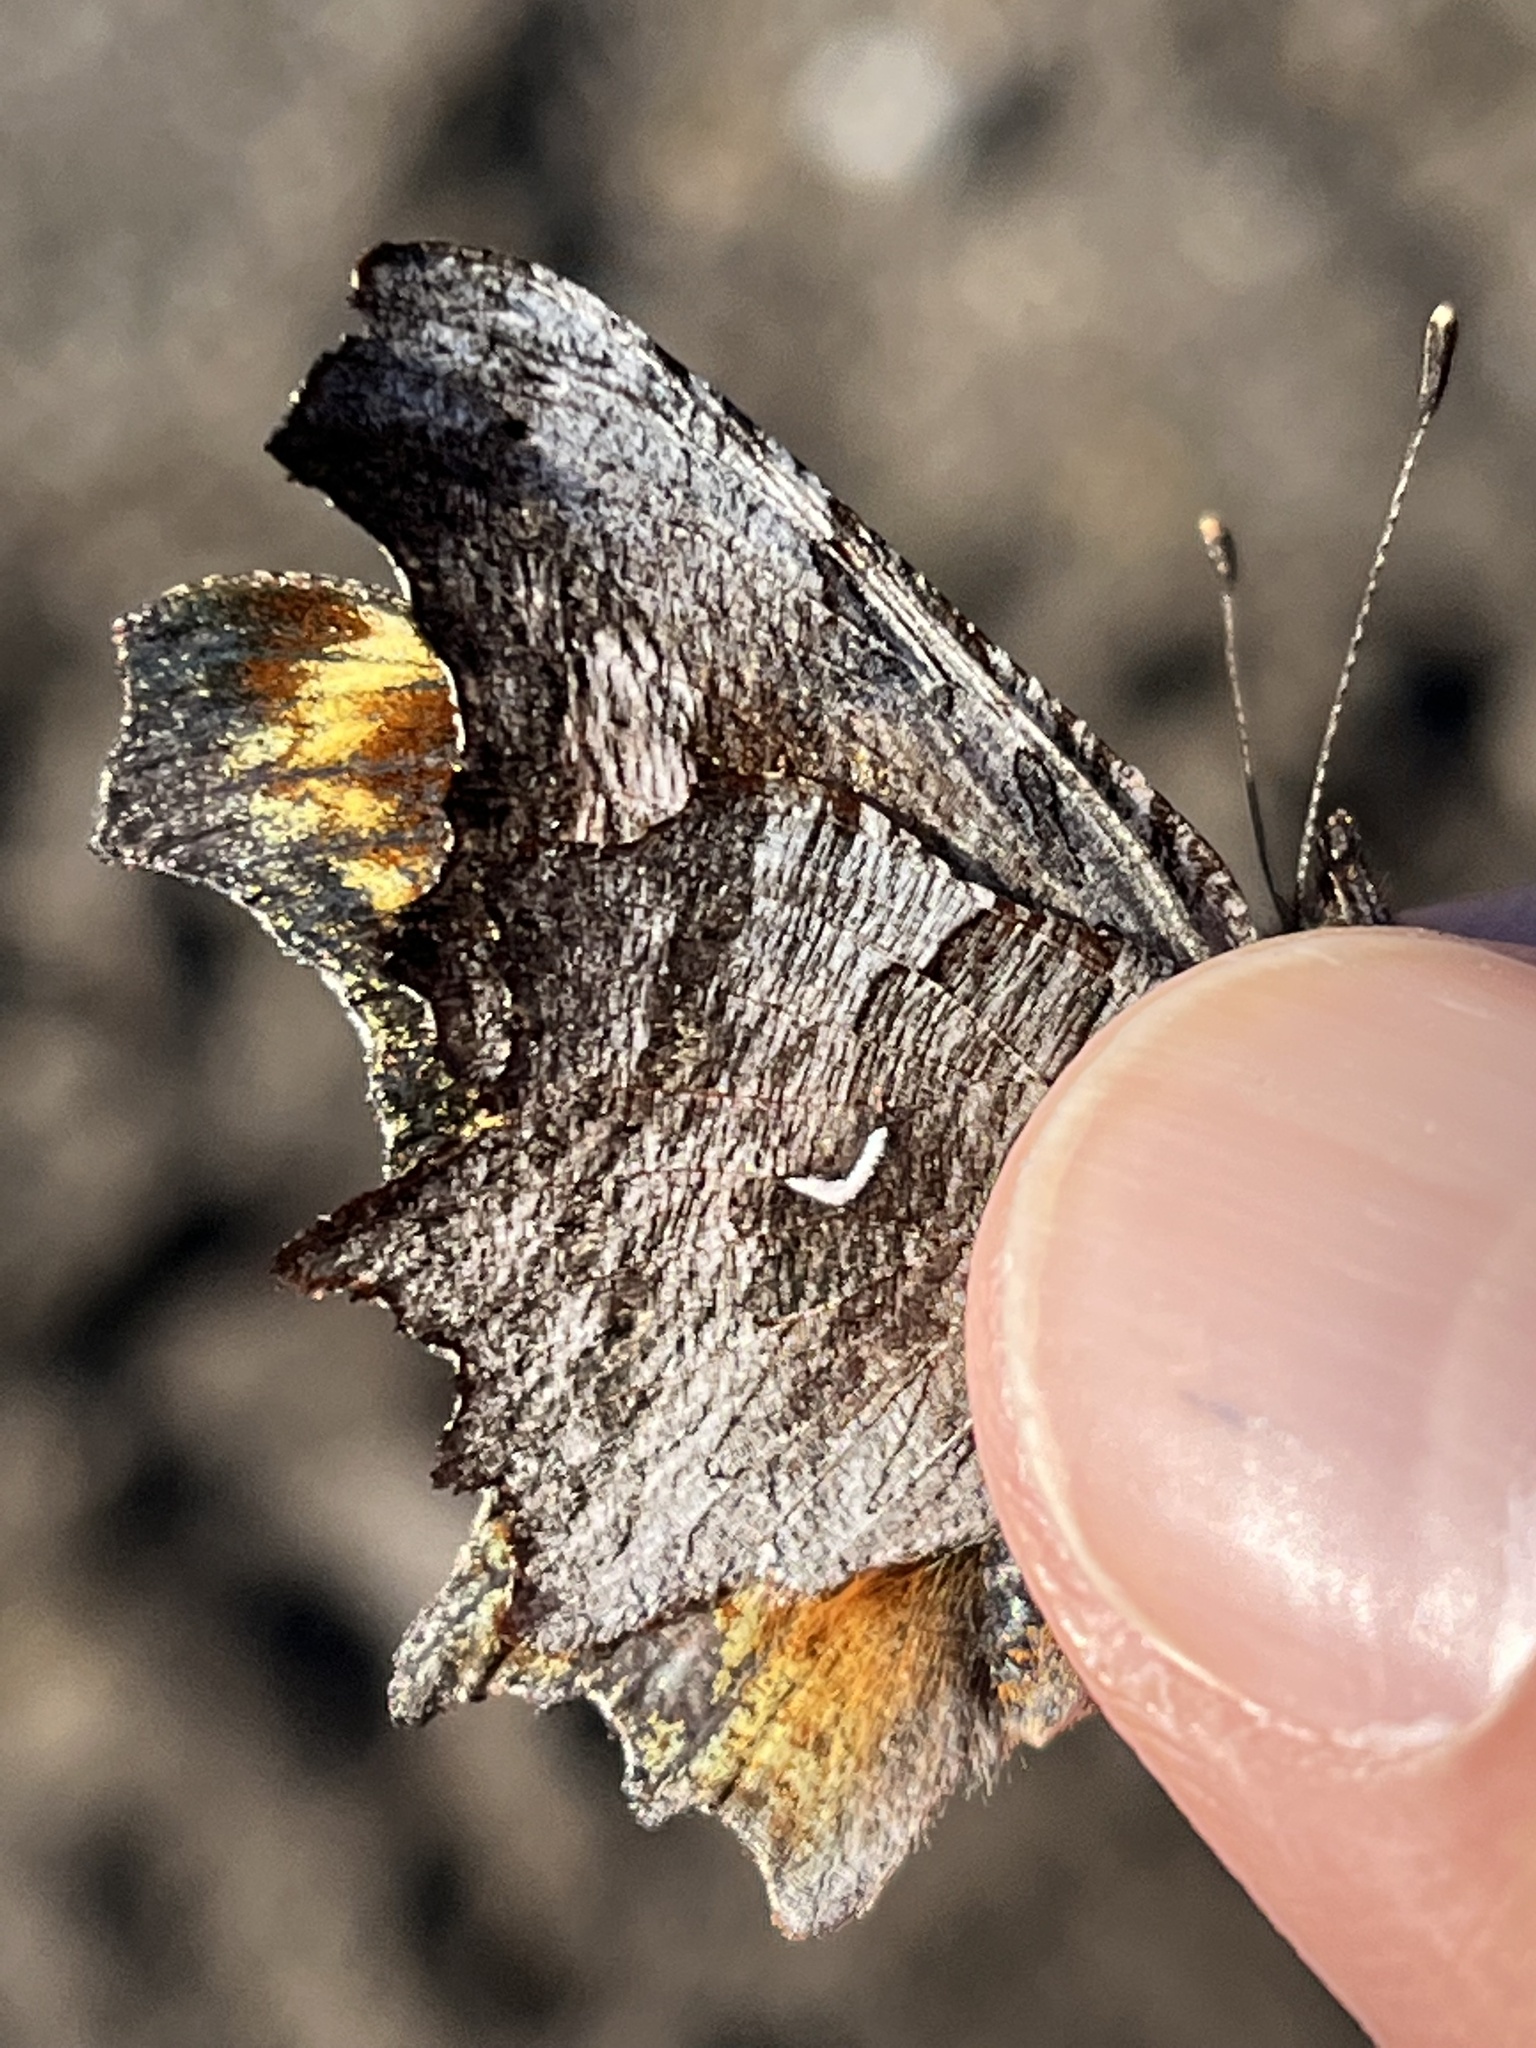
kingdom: Animalia
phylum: Arthropoda
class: Insecta
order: Lepidoptera
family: Nymphalidae
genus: Polygonia
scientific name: Polygonia gracilis
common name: Hoary comma
